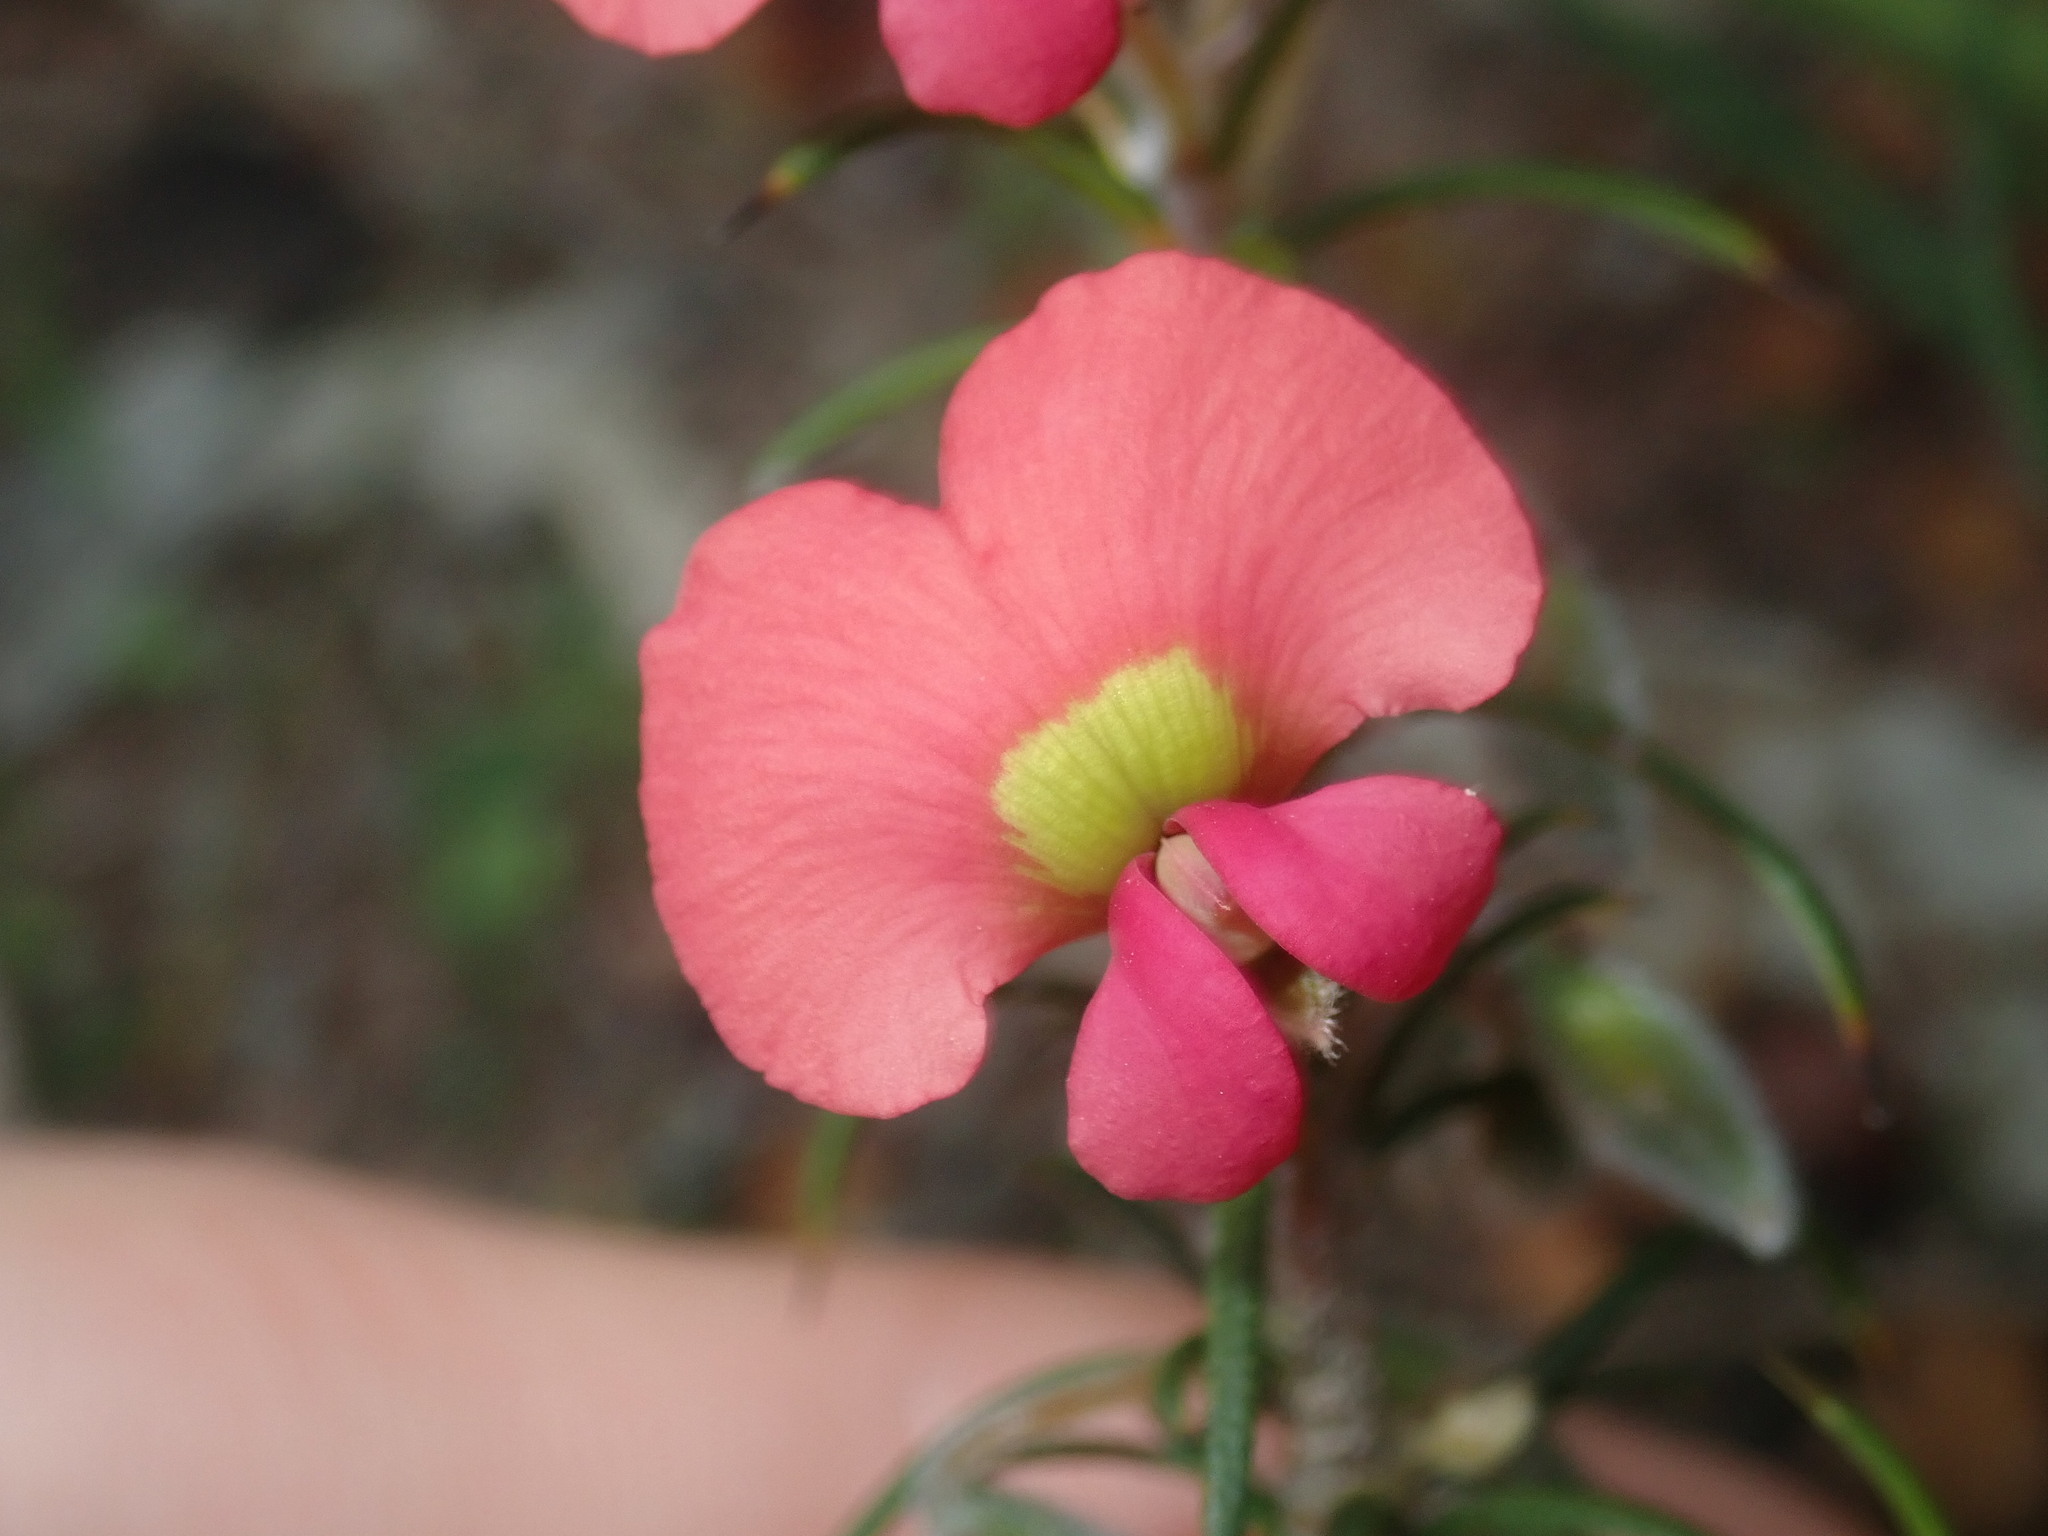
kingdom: Plantae
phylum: Tracheophyta
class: Magnoliopsida
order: Fabales
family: Fabaceae
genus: Chorizema
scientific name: Chorizema aciculare
